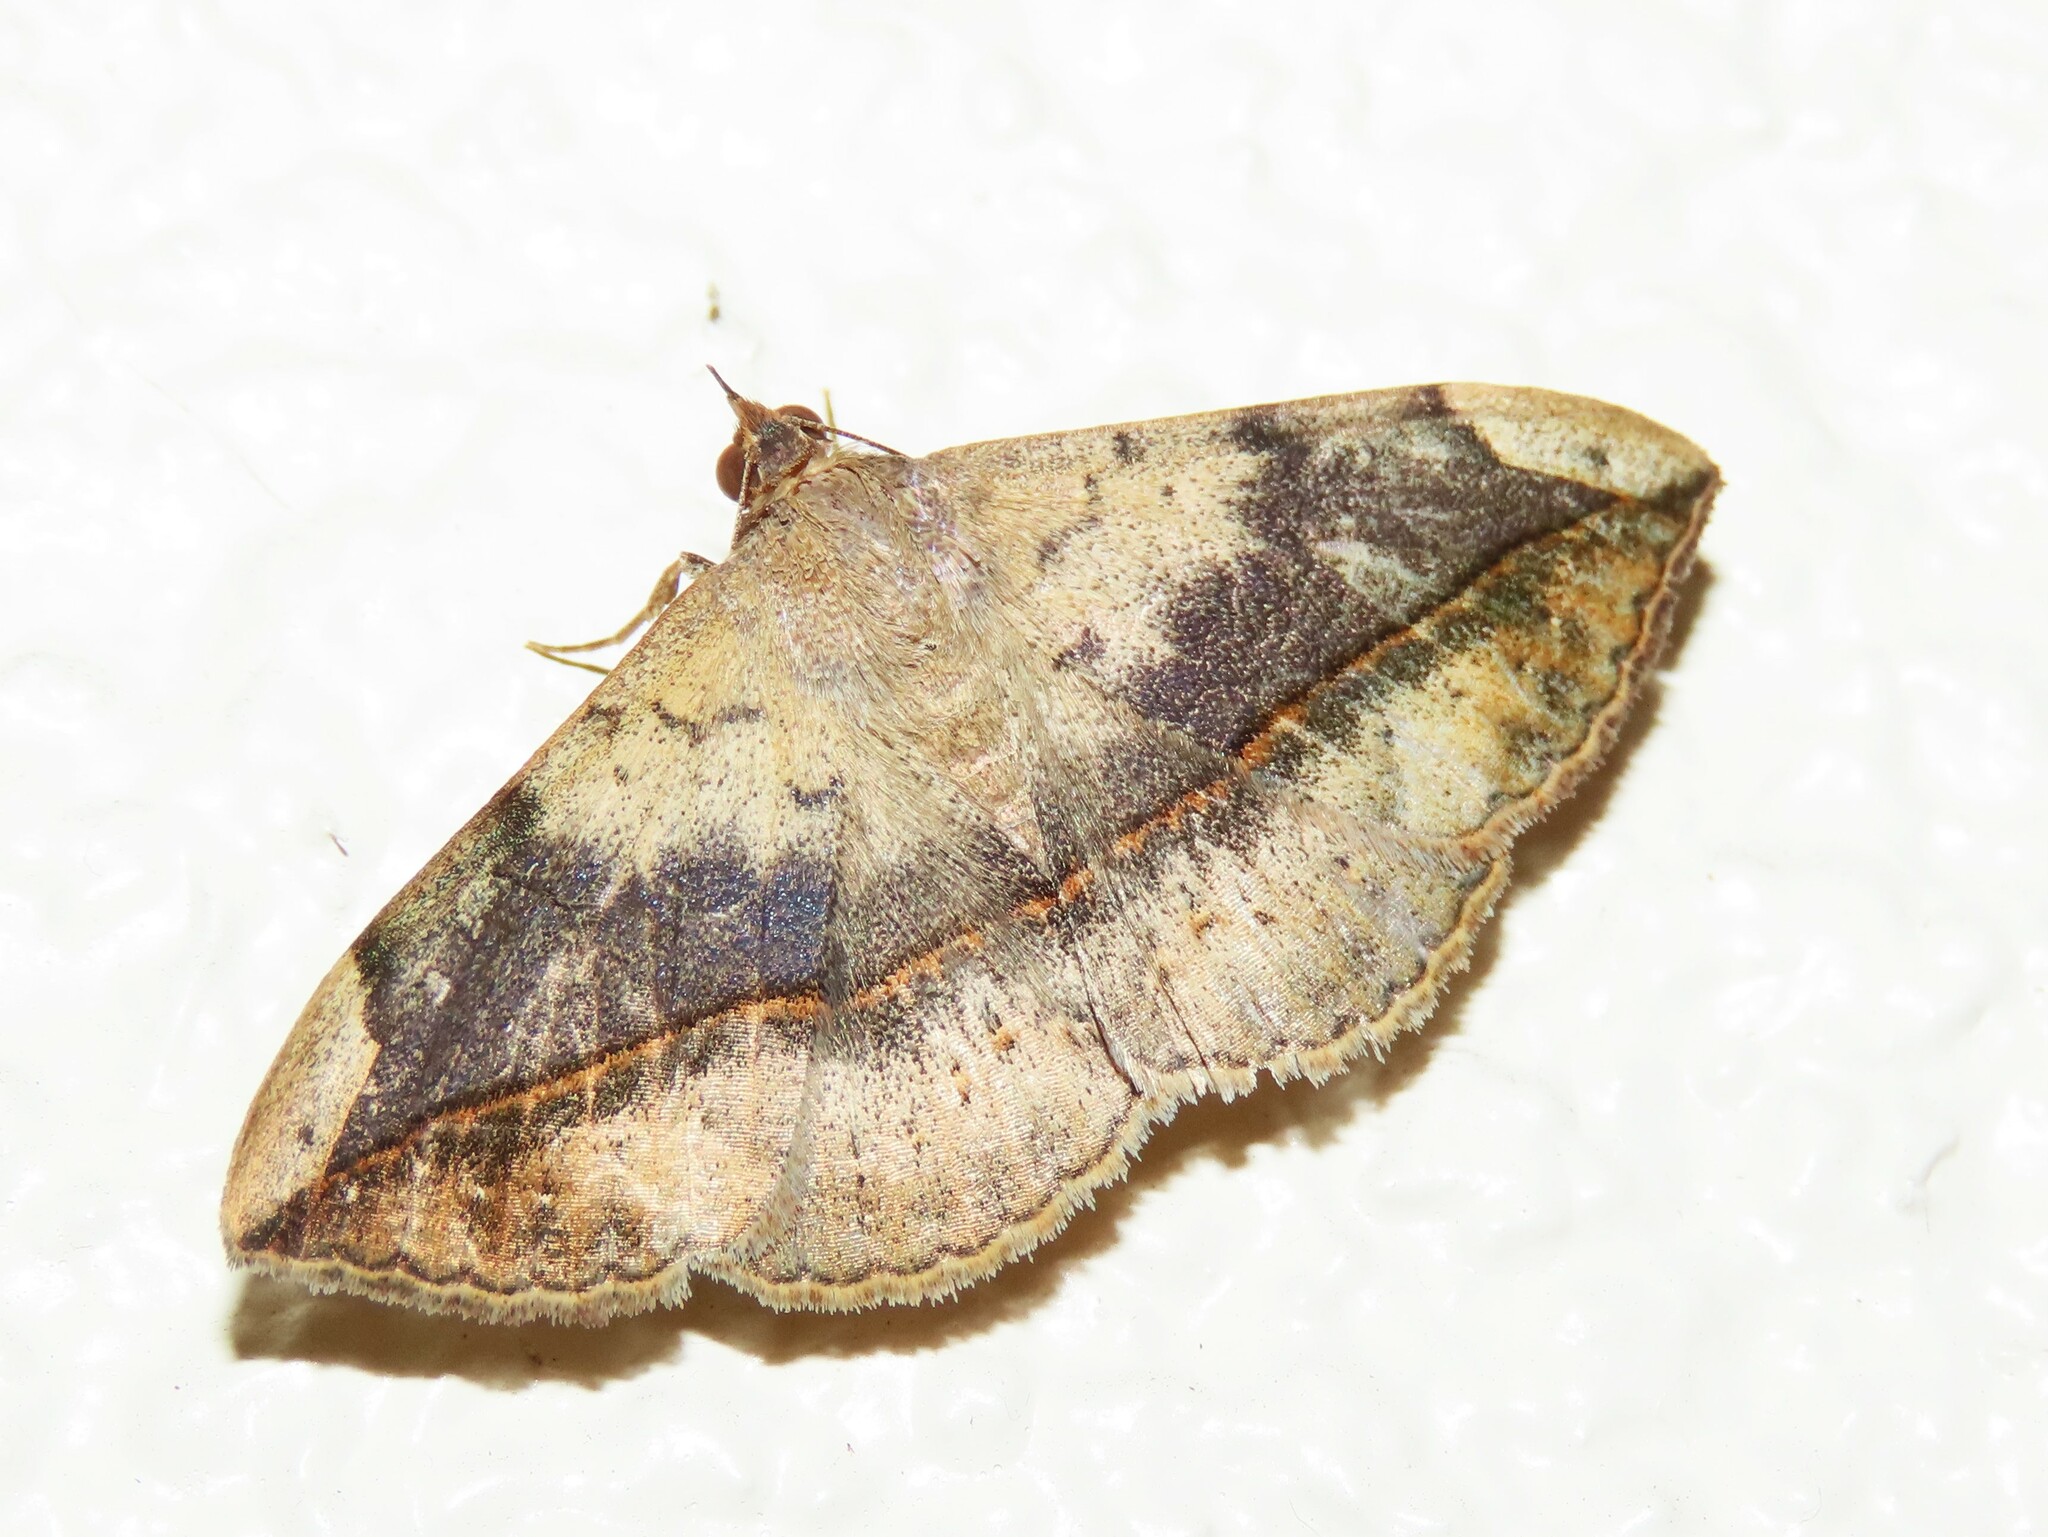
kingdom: Animalia
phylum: Arthropoda
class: Insecta
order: Lepidoptera
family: Erebidae
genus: Anticarsia
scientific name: Anticarsia gemmatalis
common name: Cutworm moth
